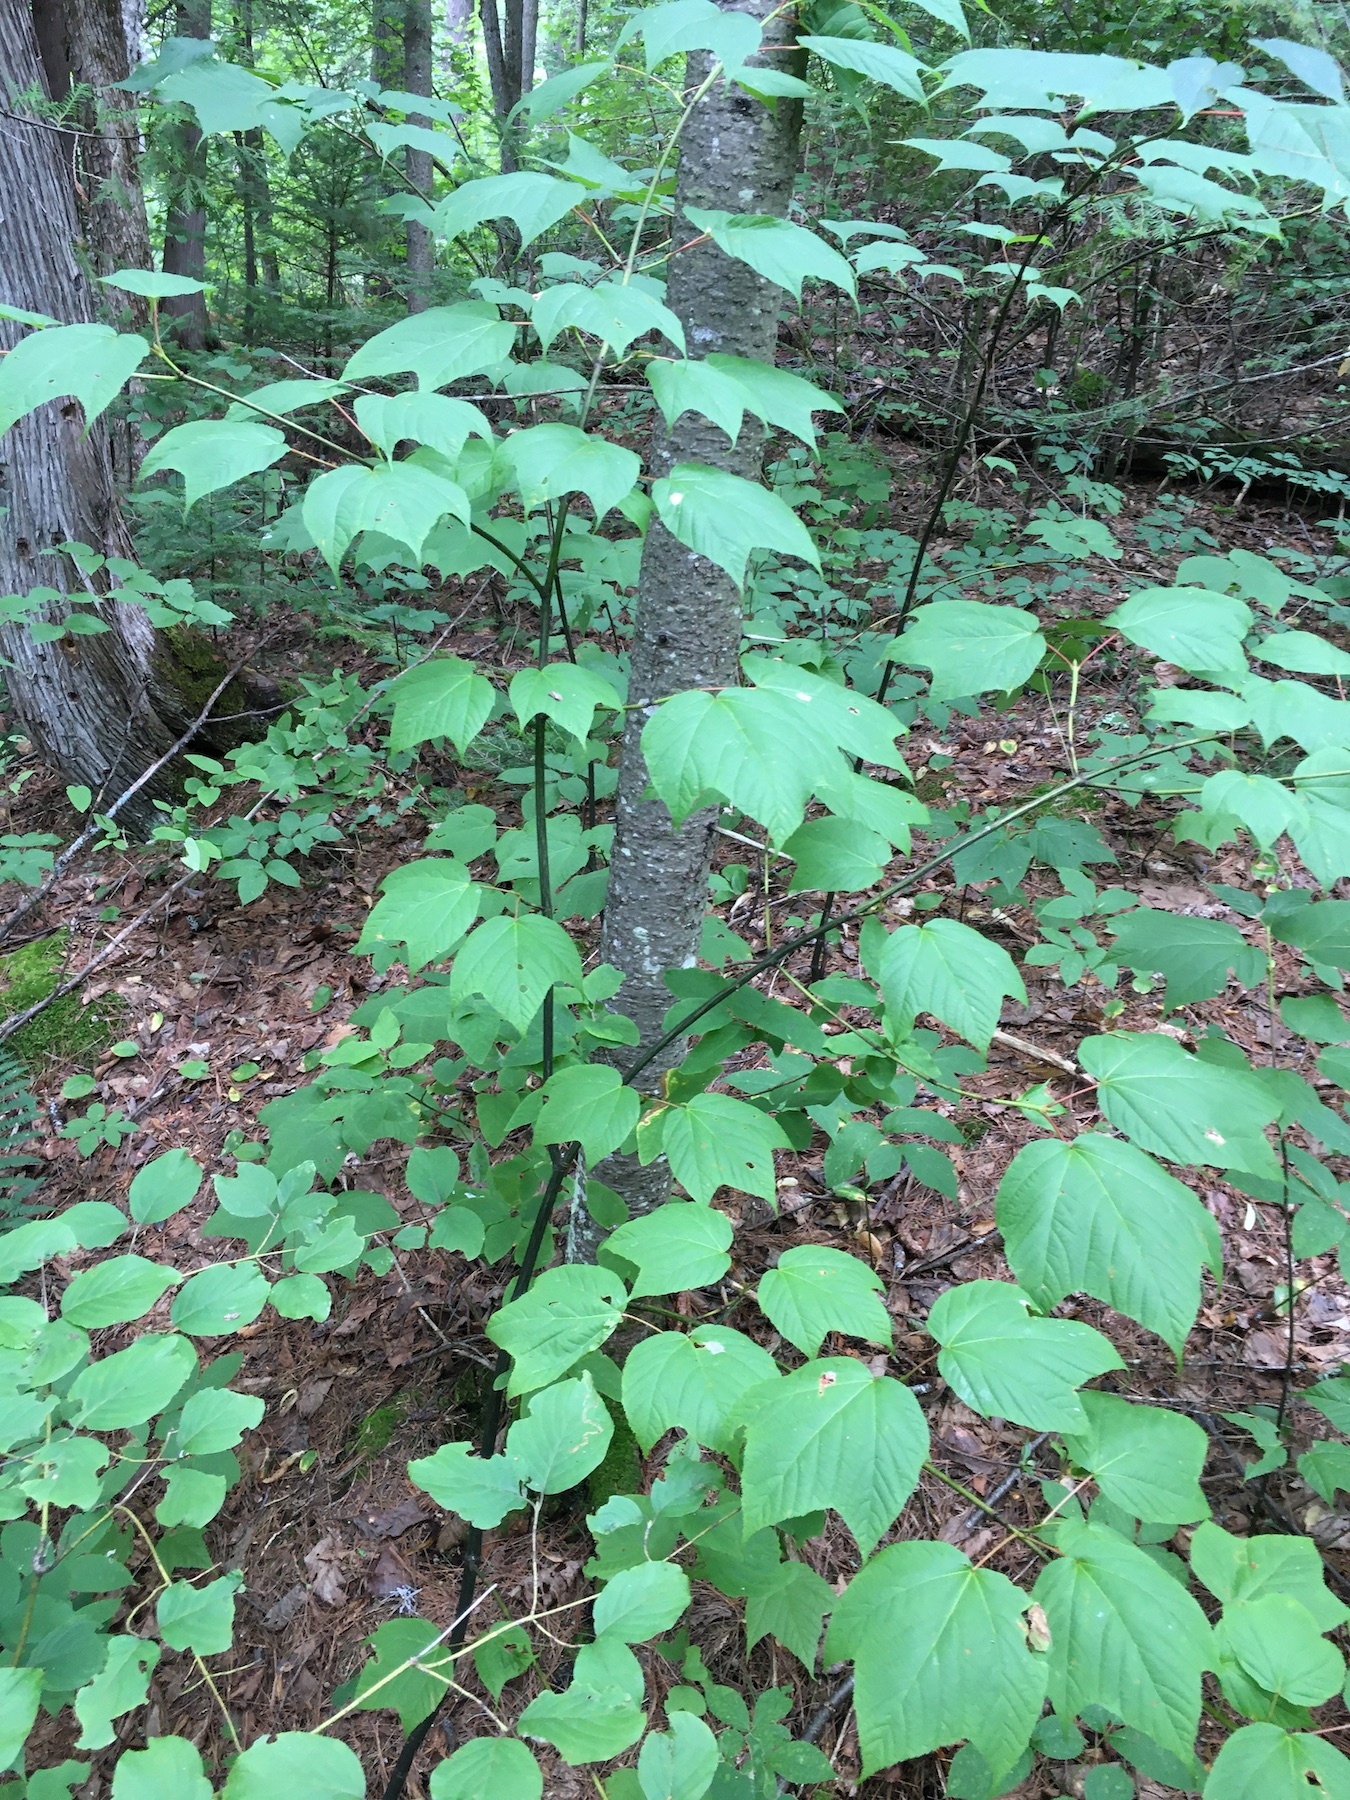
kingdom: Plantae
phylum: Tracheophyta
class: Magnoliopsida
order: Sapindales
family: Sapindaceae
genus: Acer
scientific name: Acer pensylvanicum
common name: Moosewood
